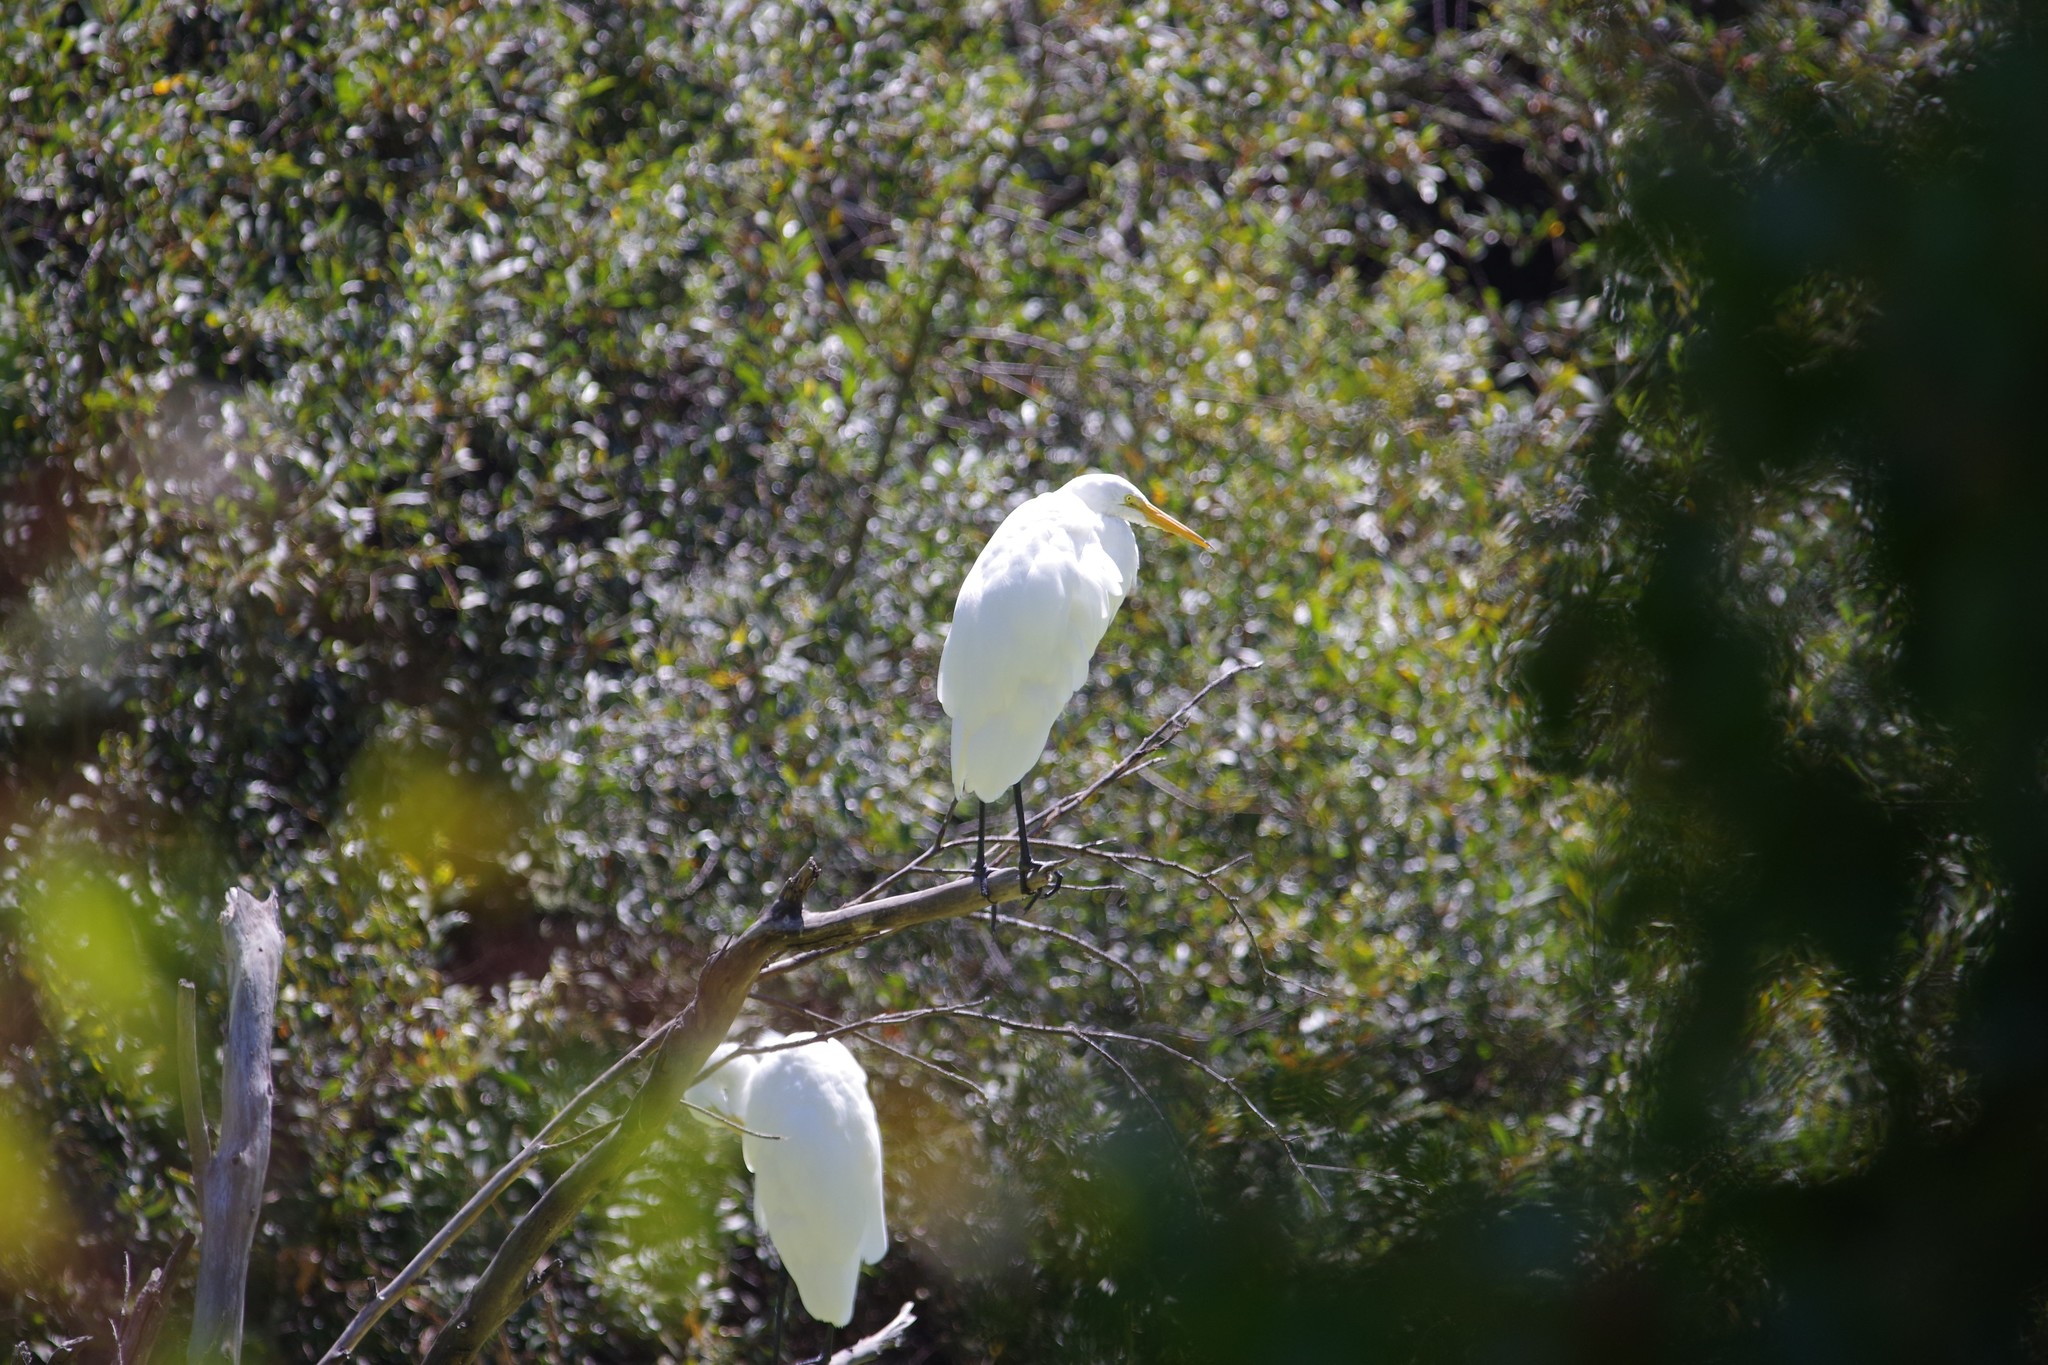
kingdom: Animalia
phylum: Chordata
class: Aves
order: Pelecaniformes
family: Ardeidae
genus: Ardea
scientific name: Ardea alba
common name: Great egret
